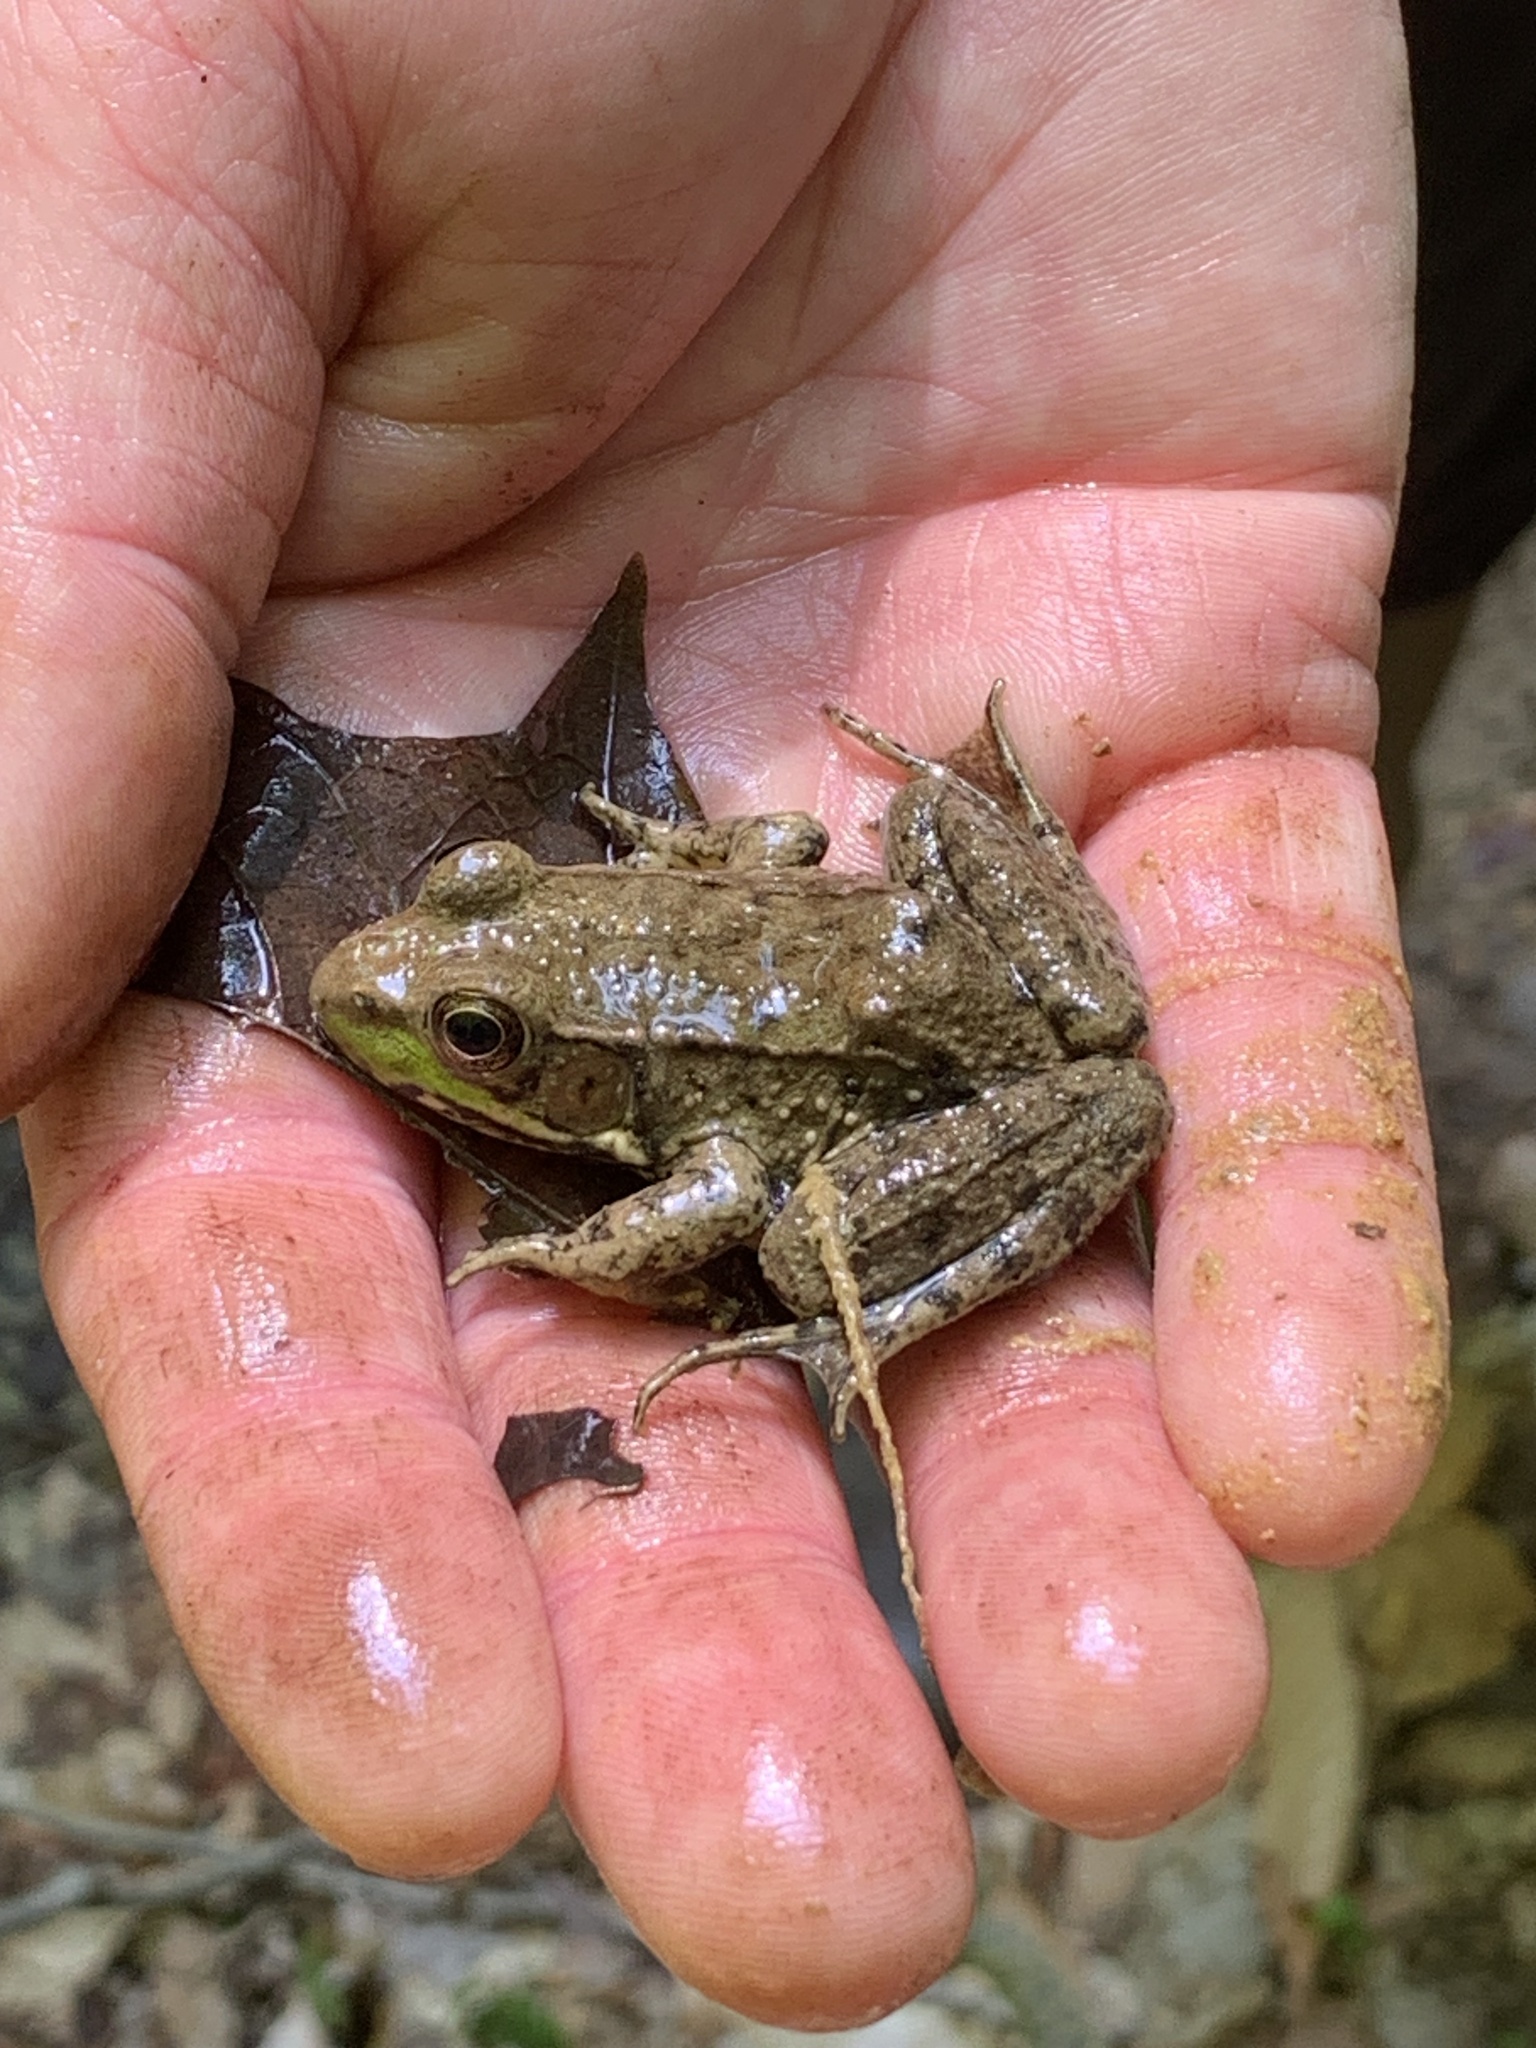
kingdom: Animalia
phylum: Chordata
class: Amphibia
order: Anura
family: Ranidae
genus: Lithobates
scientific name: Lithobates clamitans
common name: Green frog
